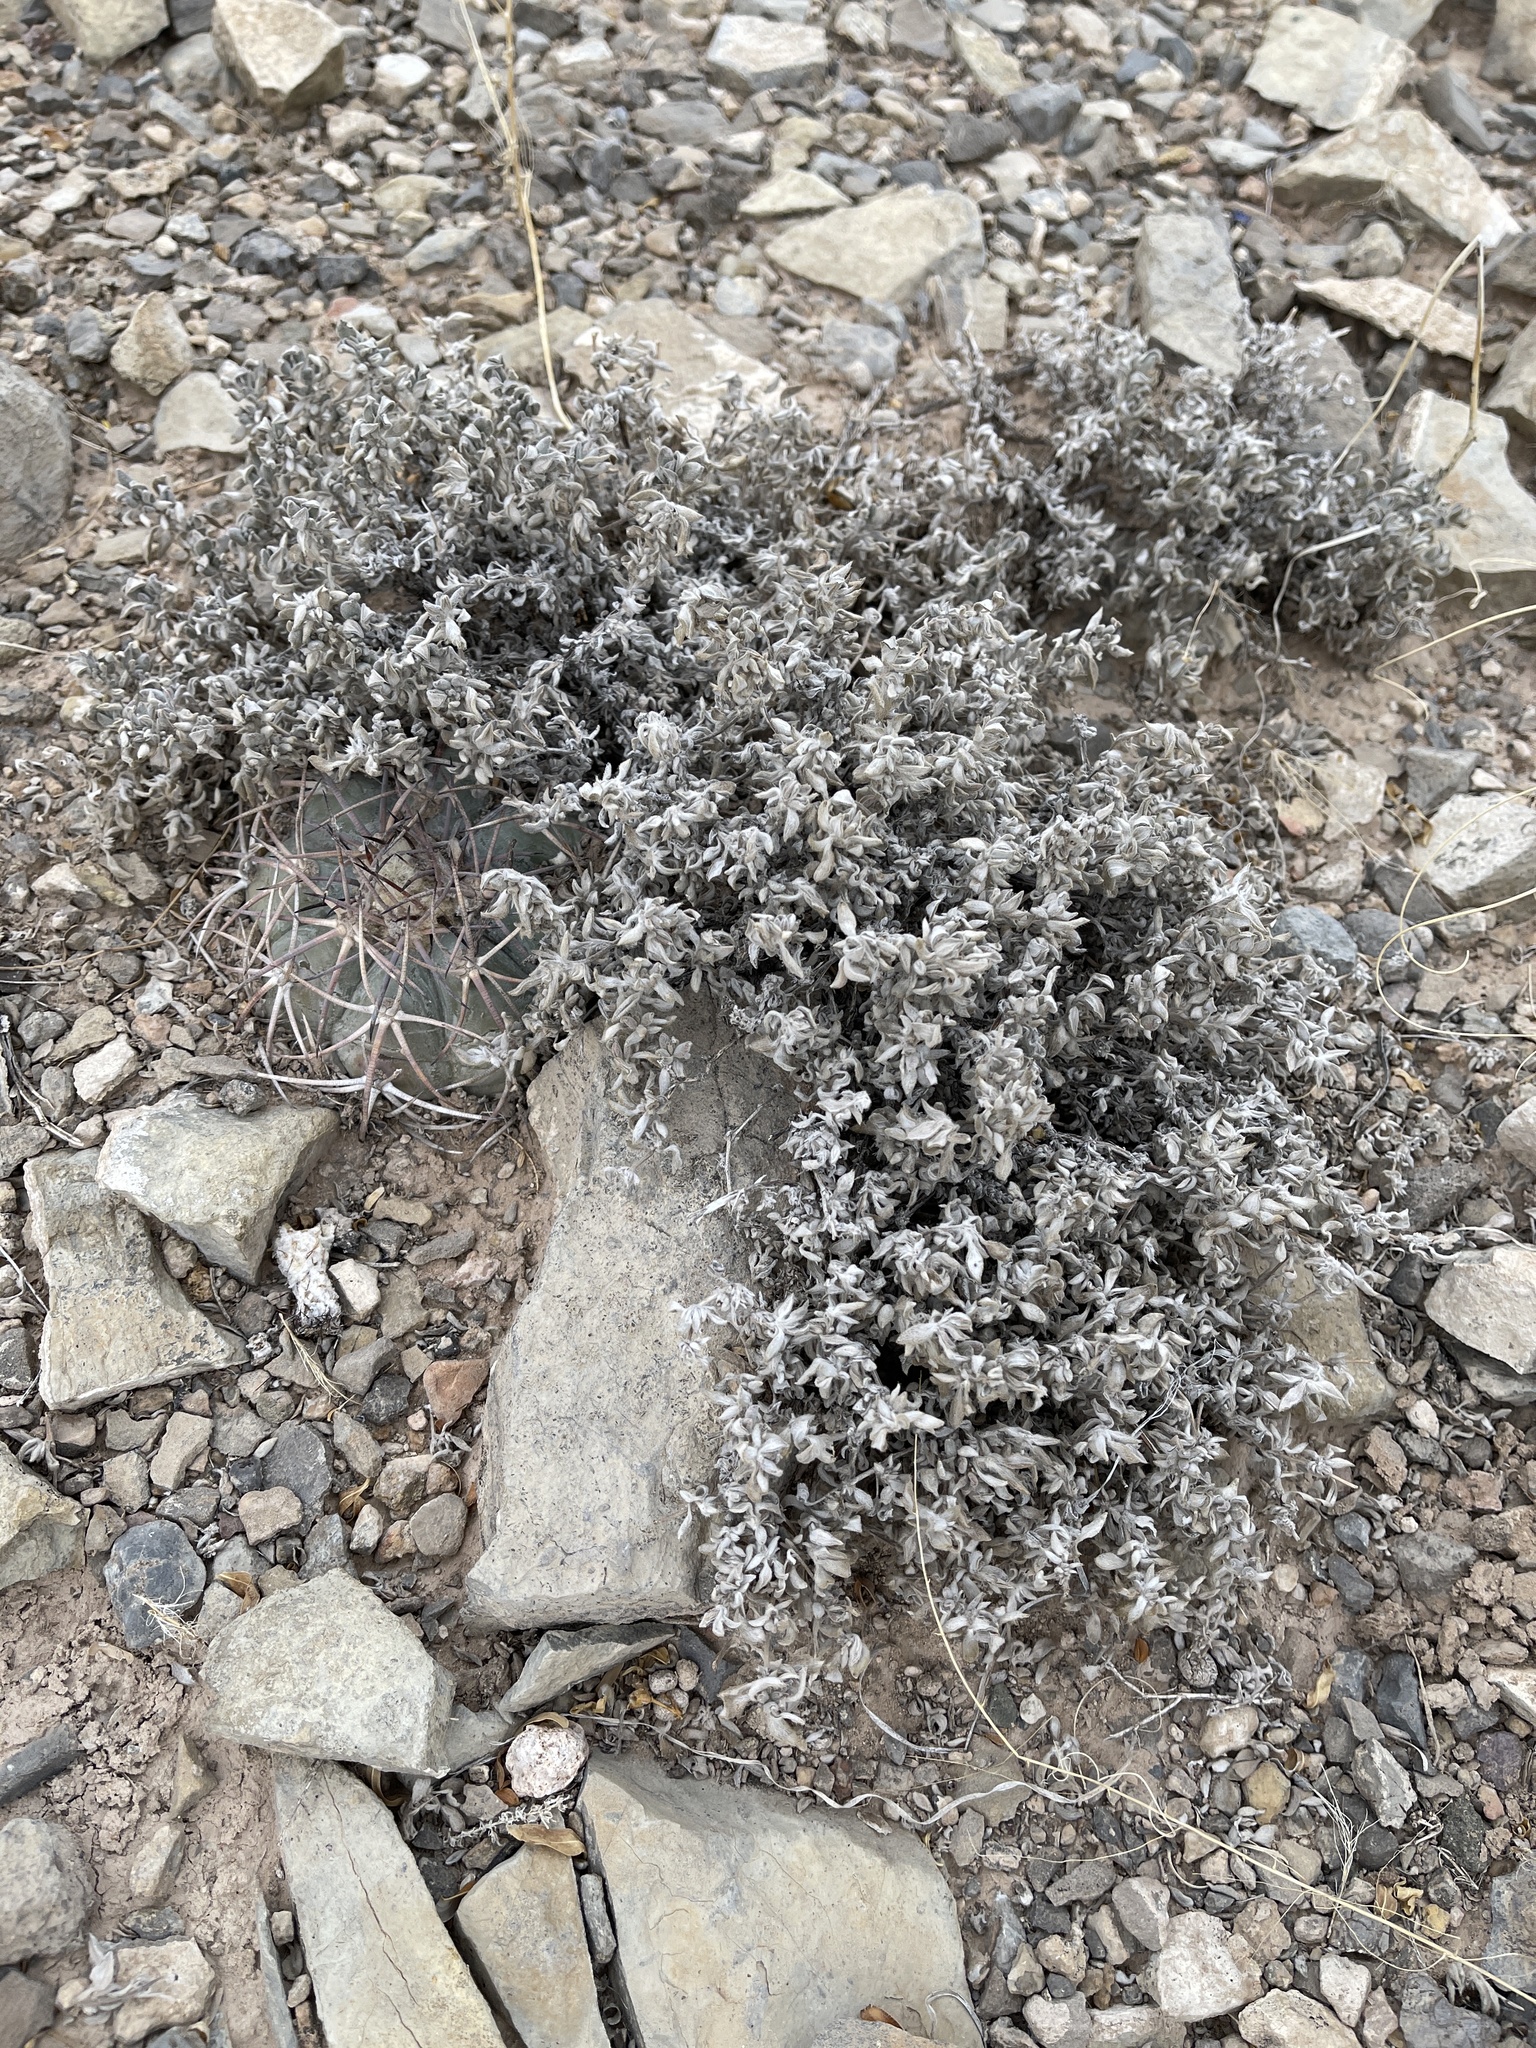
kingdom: Plantae
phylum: Tracheophyta
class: Magnoliopsida
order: Boraginales
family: Ehretiaceae
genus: Tiquilia
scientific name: Tiquilia canescens
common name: Hairy tiquilia
